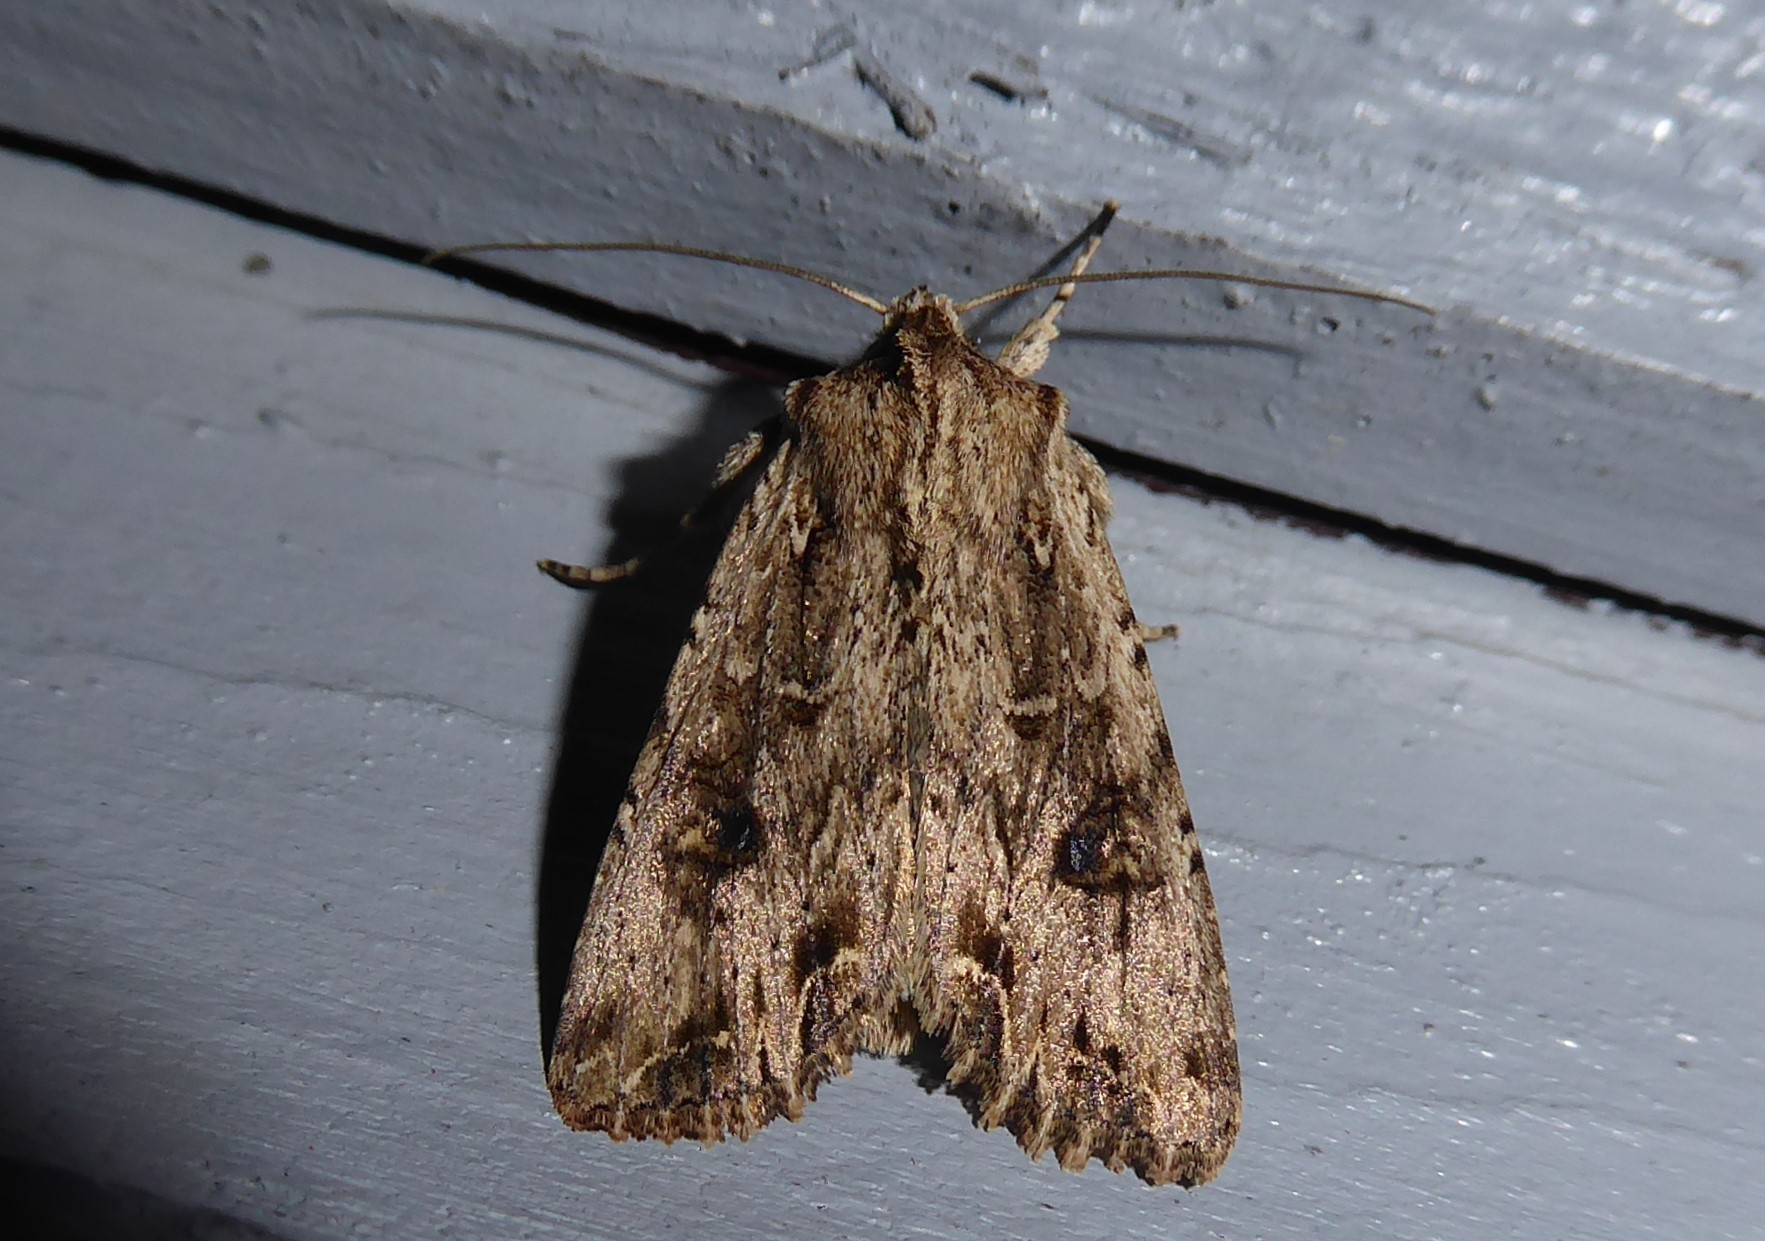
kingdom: Animalia
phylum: Arthropoda
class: Insecta
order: Lepidoptera
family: Noctuidae
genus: Ichneutica
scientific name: Ichneutica lignana
